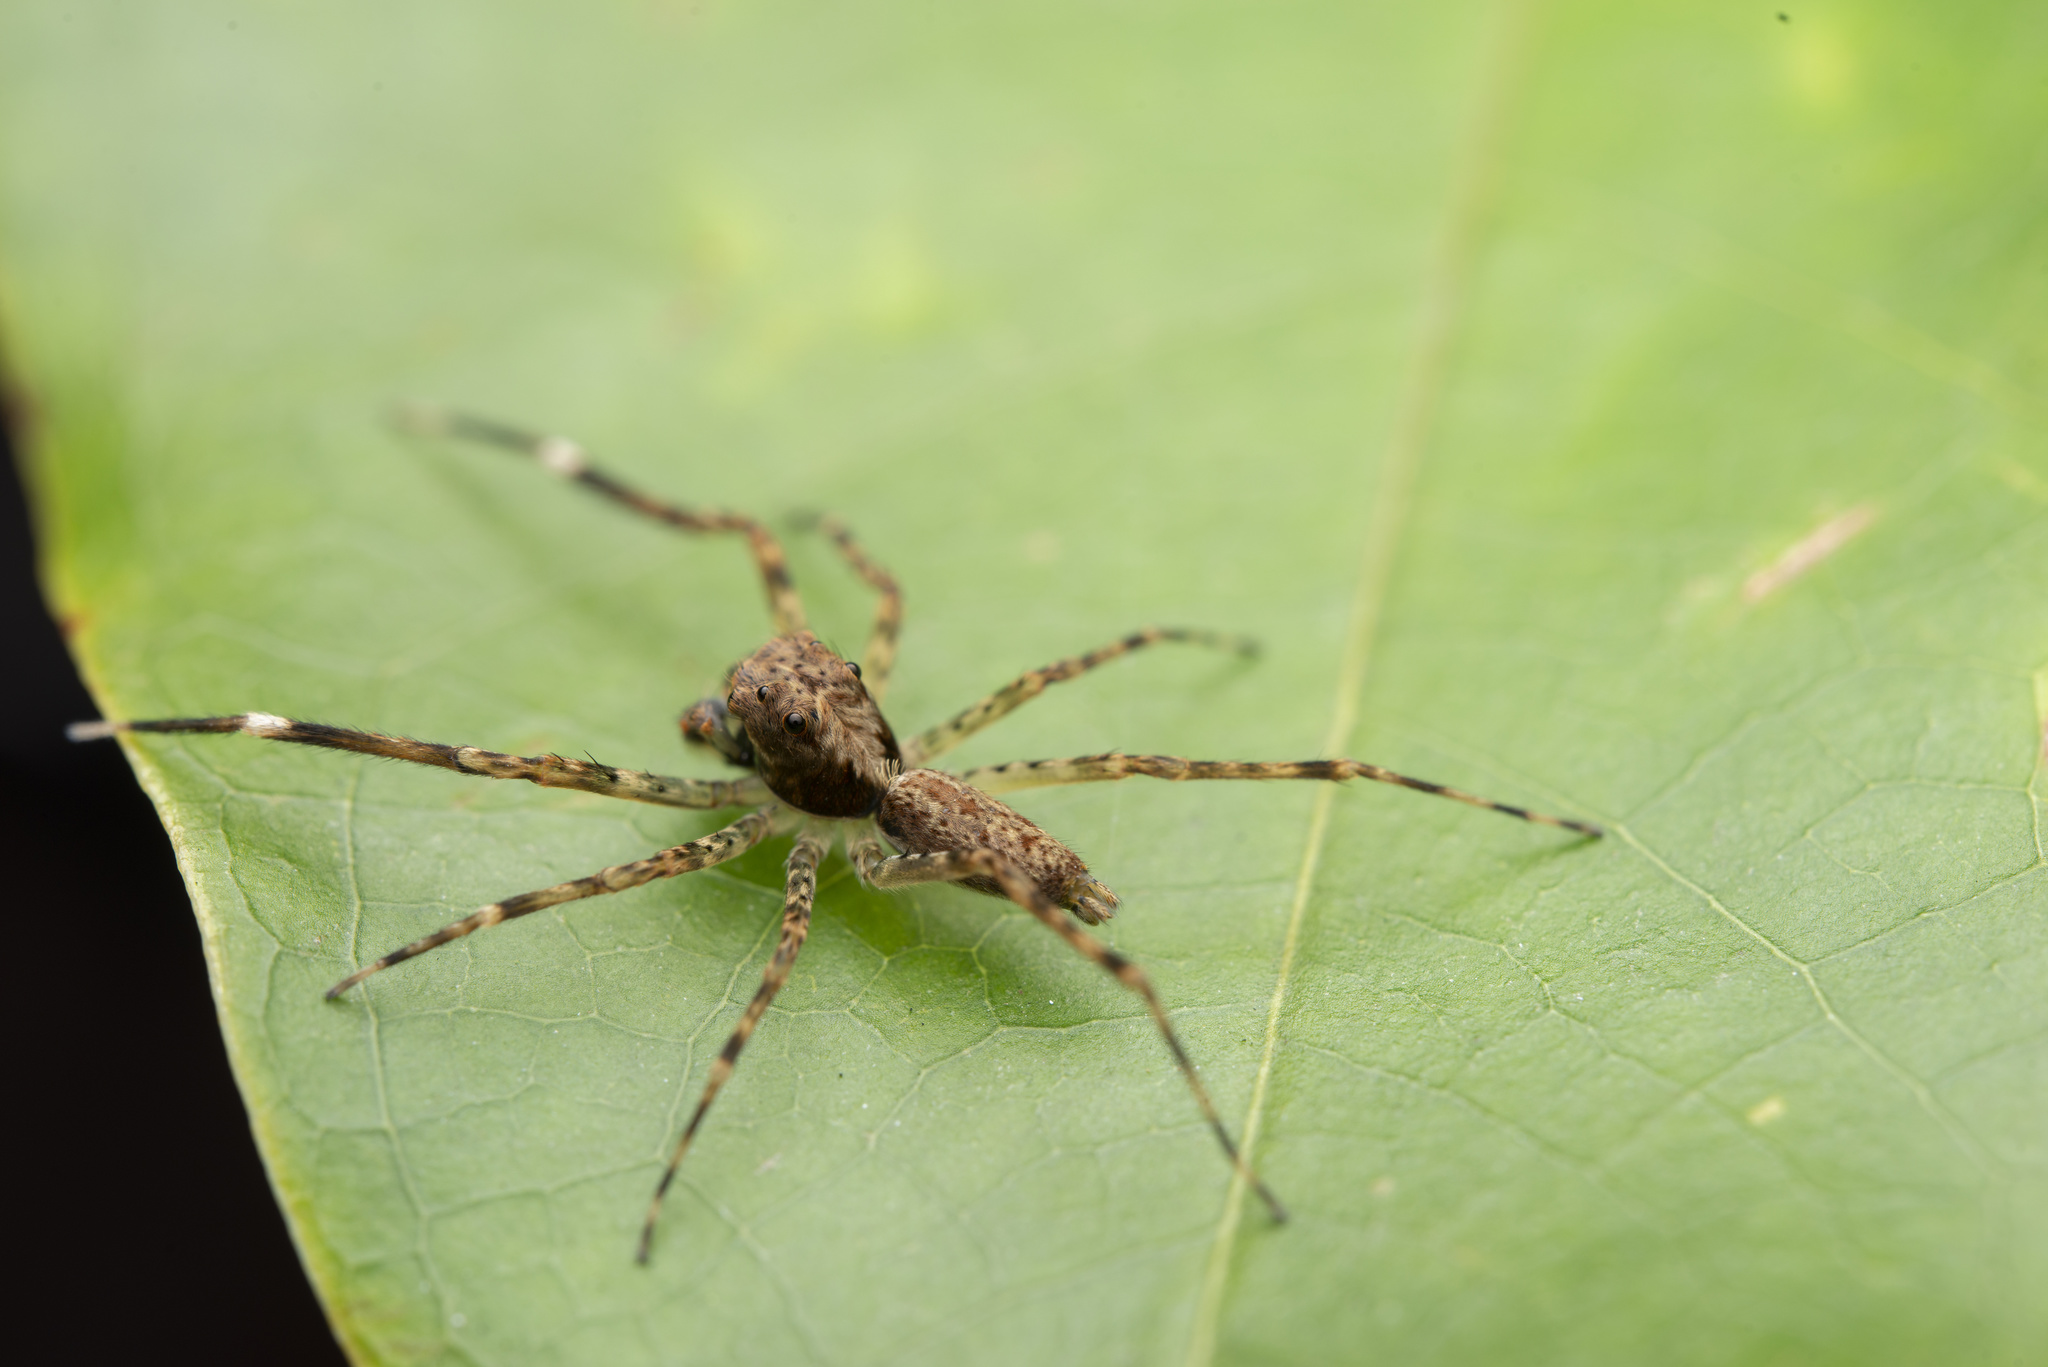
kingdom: Animalia
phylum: Arthropoda
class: Arachnida
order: Araneae
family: Salticidae
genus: Spartaeus
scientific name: Spartaeus zhangi
